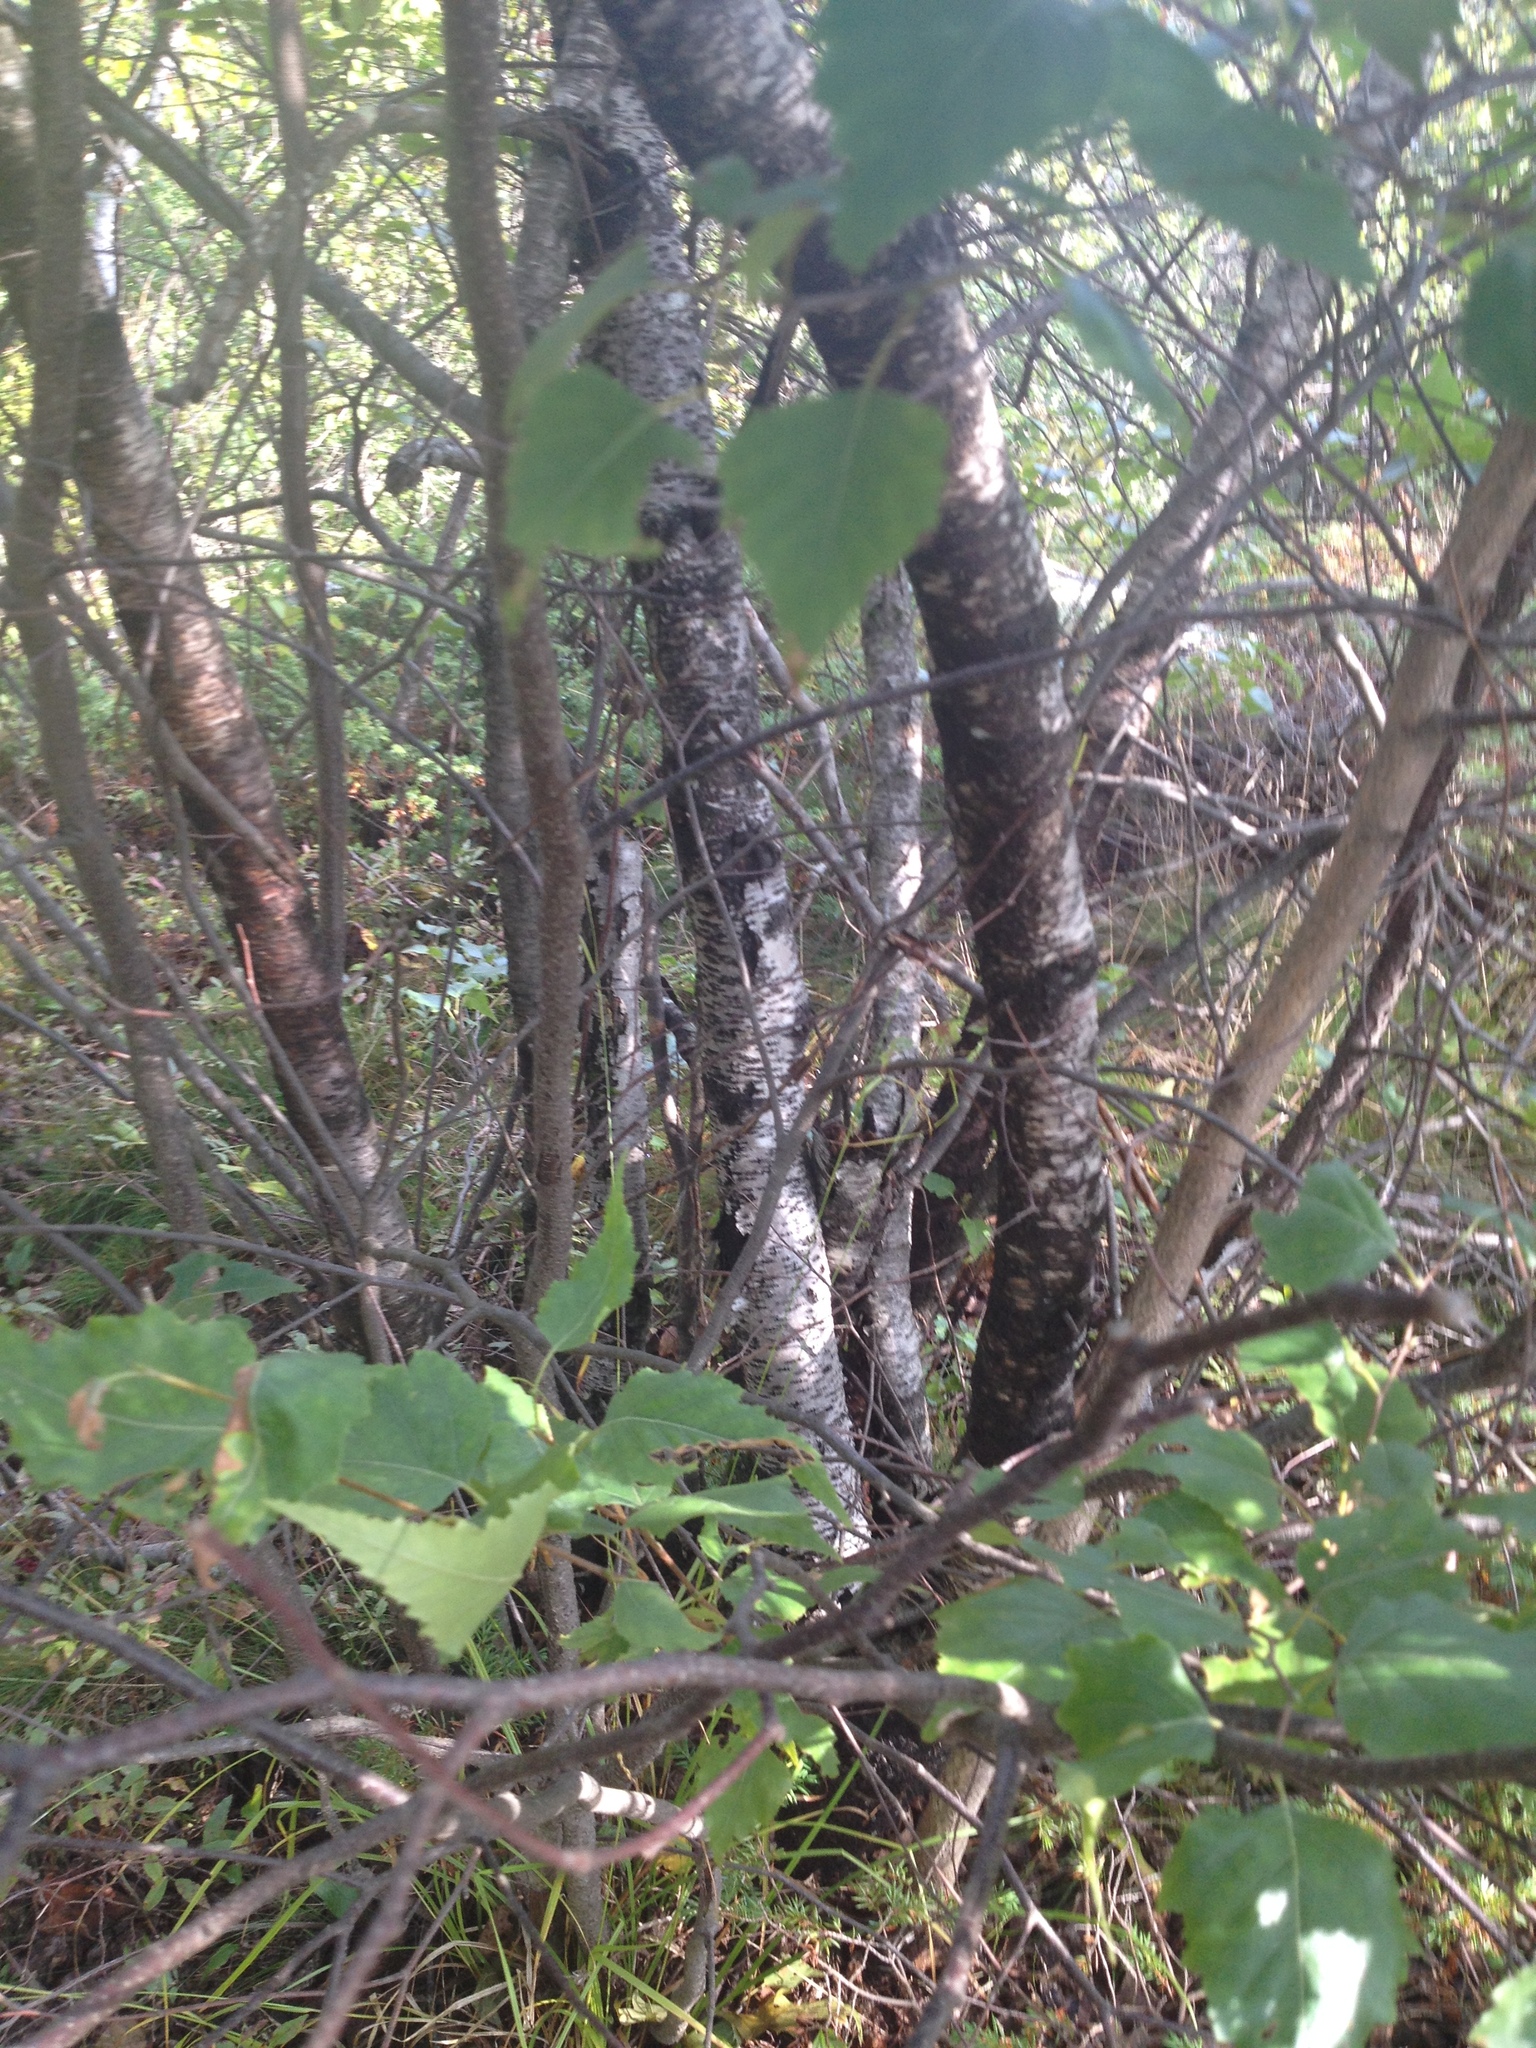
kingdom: Plantae
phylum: Tracheophyta
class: Magnoliopsida
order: Fagales
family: Betulaceae
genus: Betula
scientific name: Betula populifolia
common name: Fire birch
